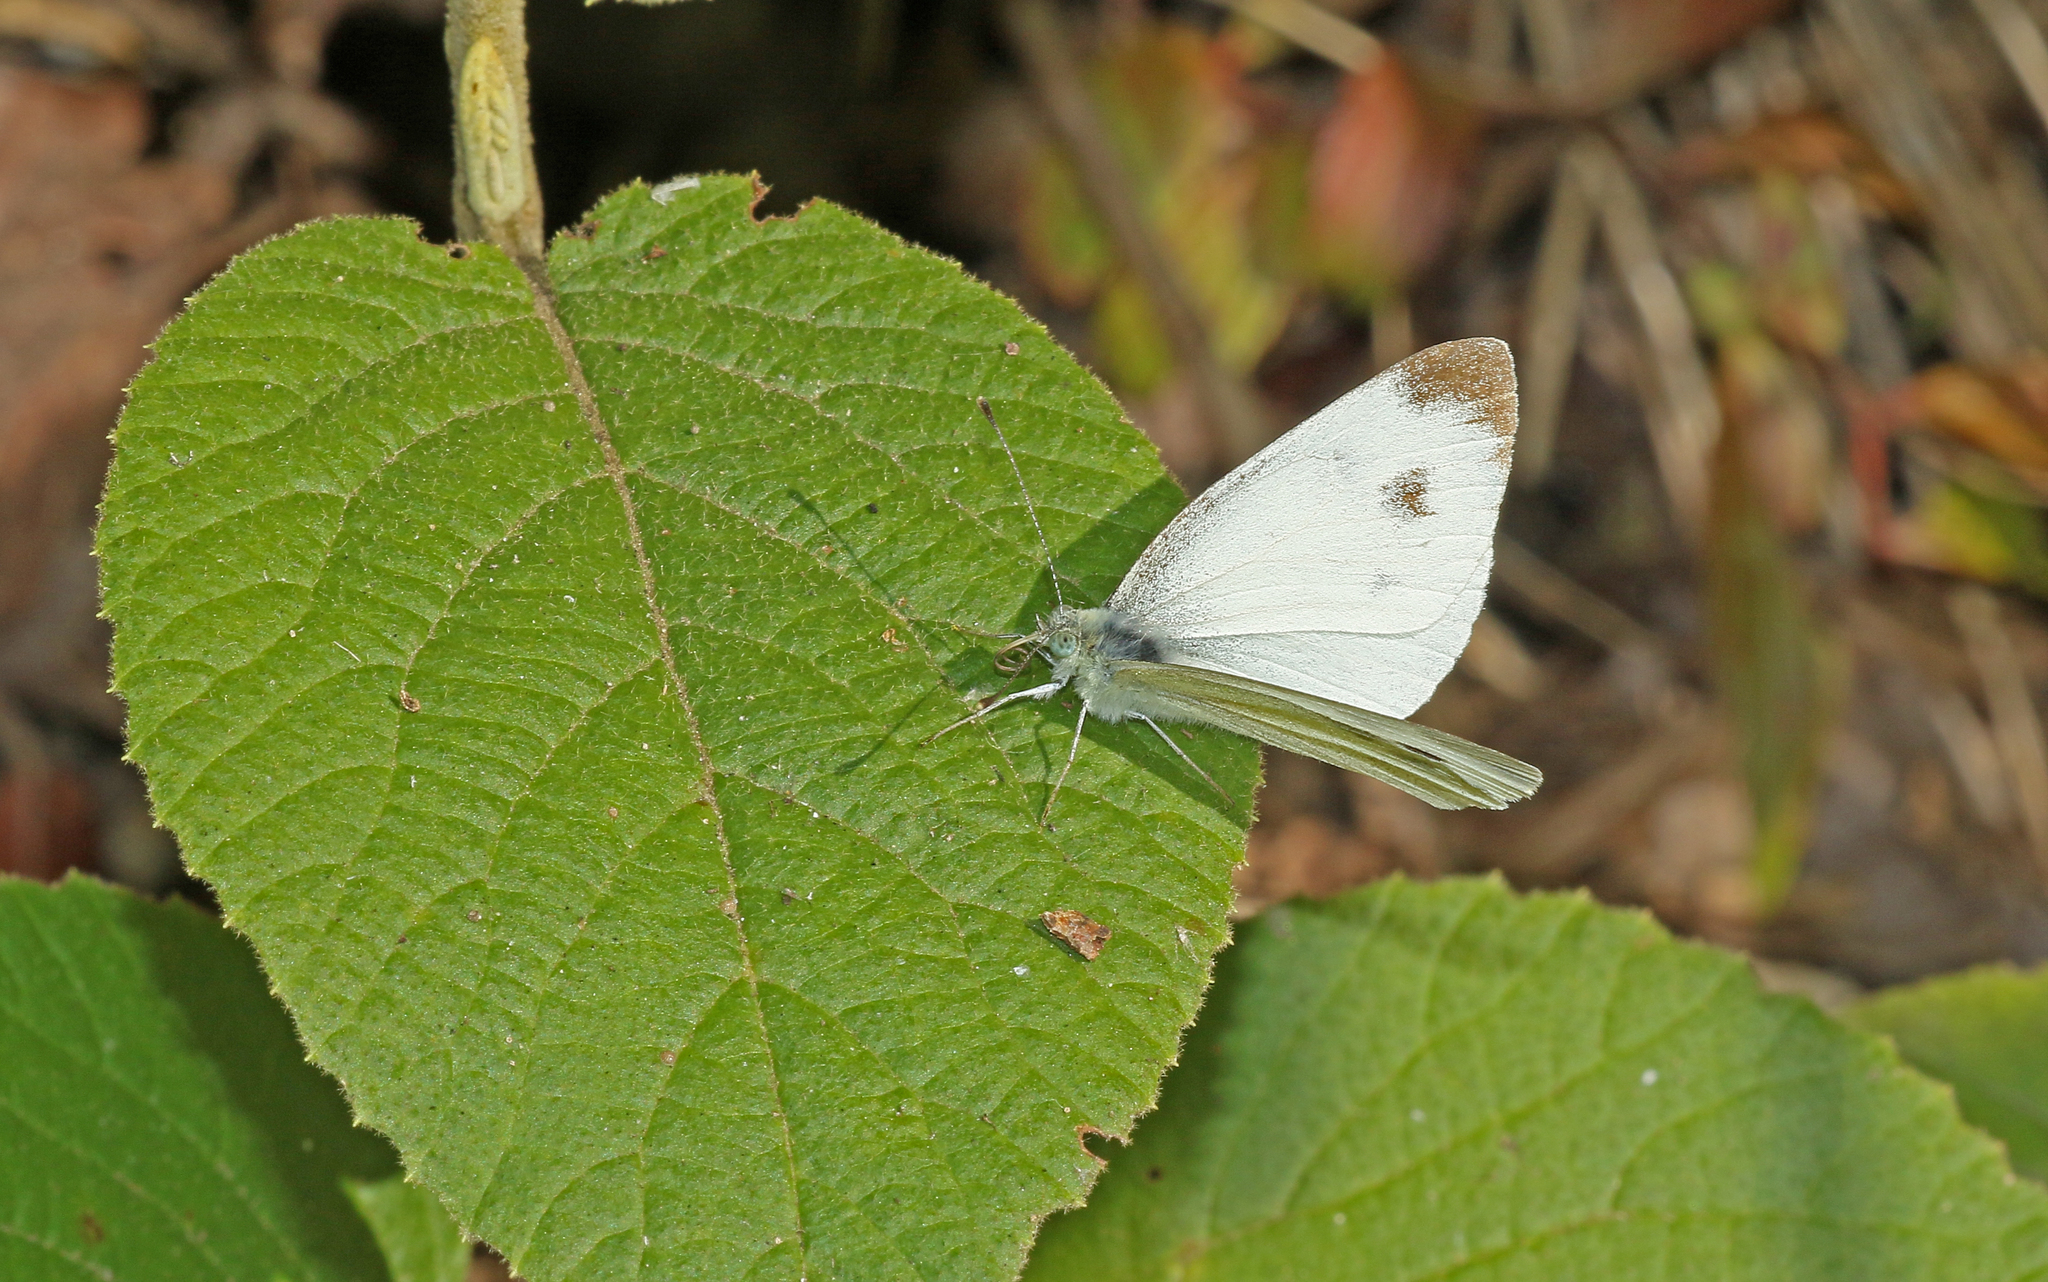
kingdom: Animalia
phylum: Arthropoda
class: Insecta
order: Lepidoptera
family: Pieridae
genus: Pieris
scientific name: Pieris mannii
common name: Southern small white
